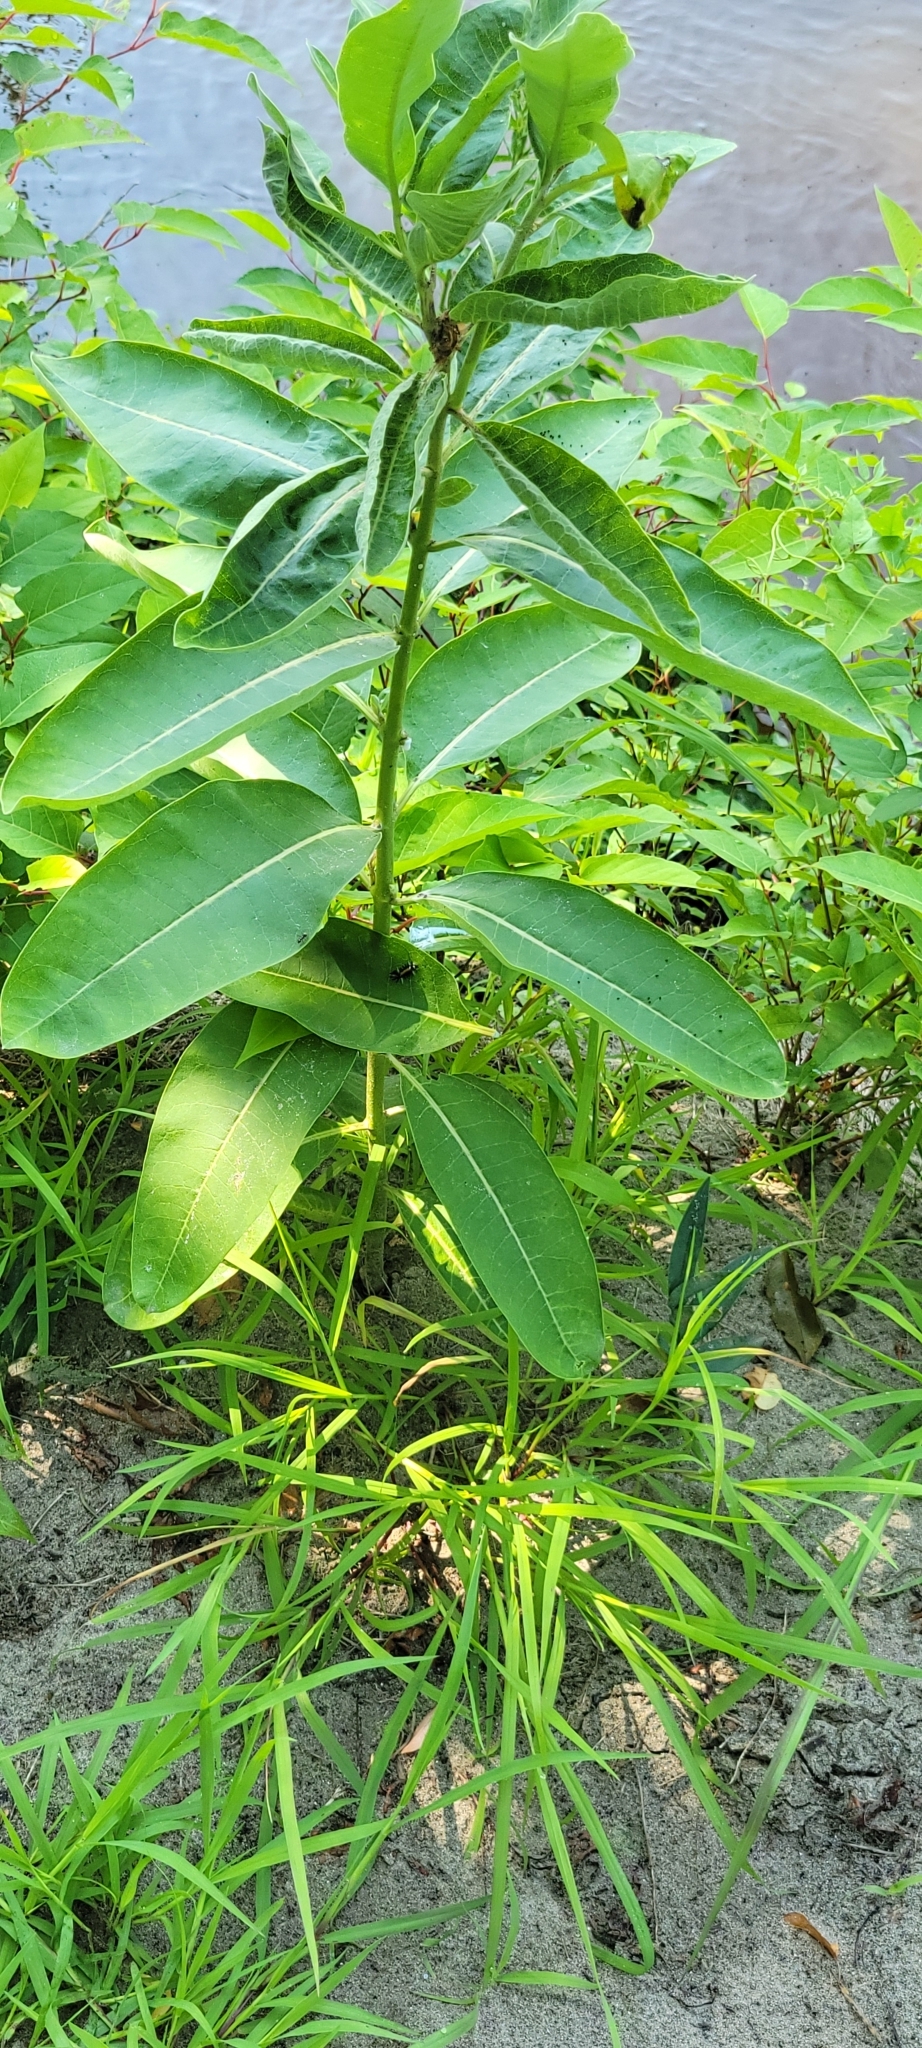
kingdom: Animalia
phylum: Arthropoda
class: Insecta
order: Lepidoptera
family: Erebidae
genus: Euchaetes
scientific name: Euchaetes egle
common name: Milkweed tussock moth
